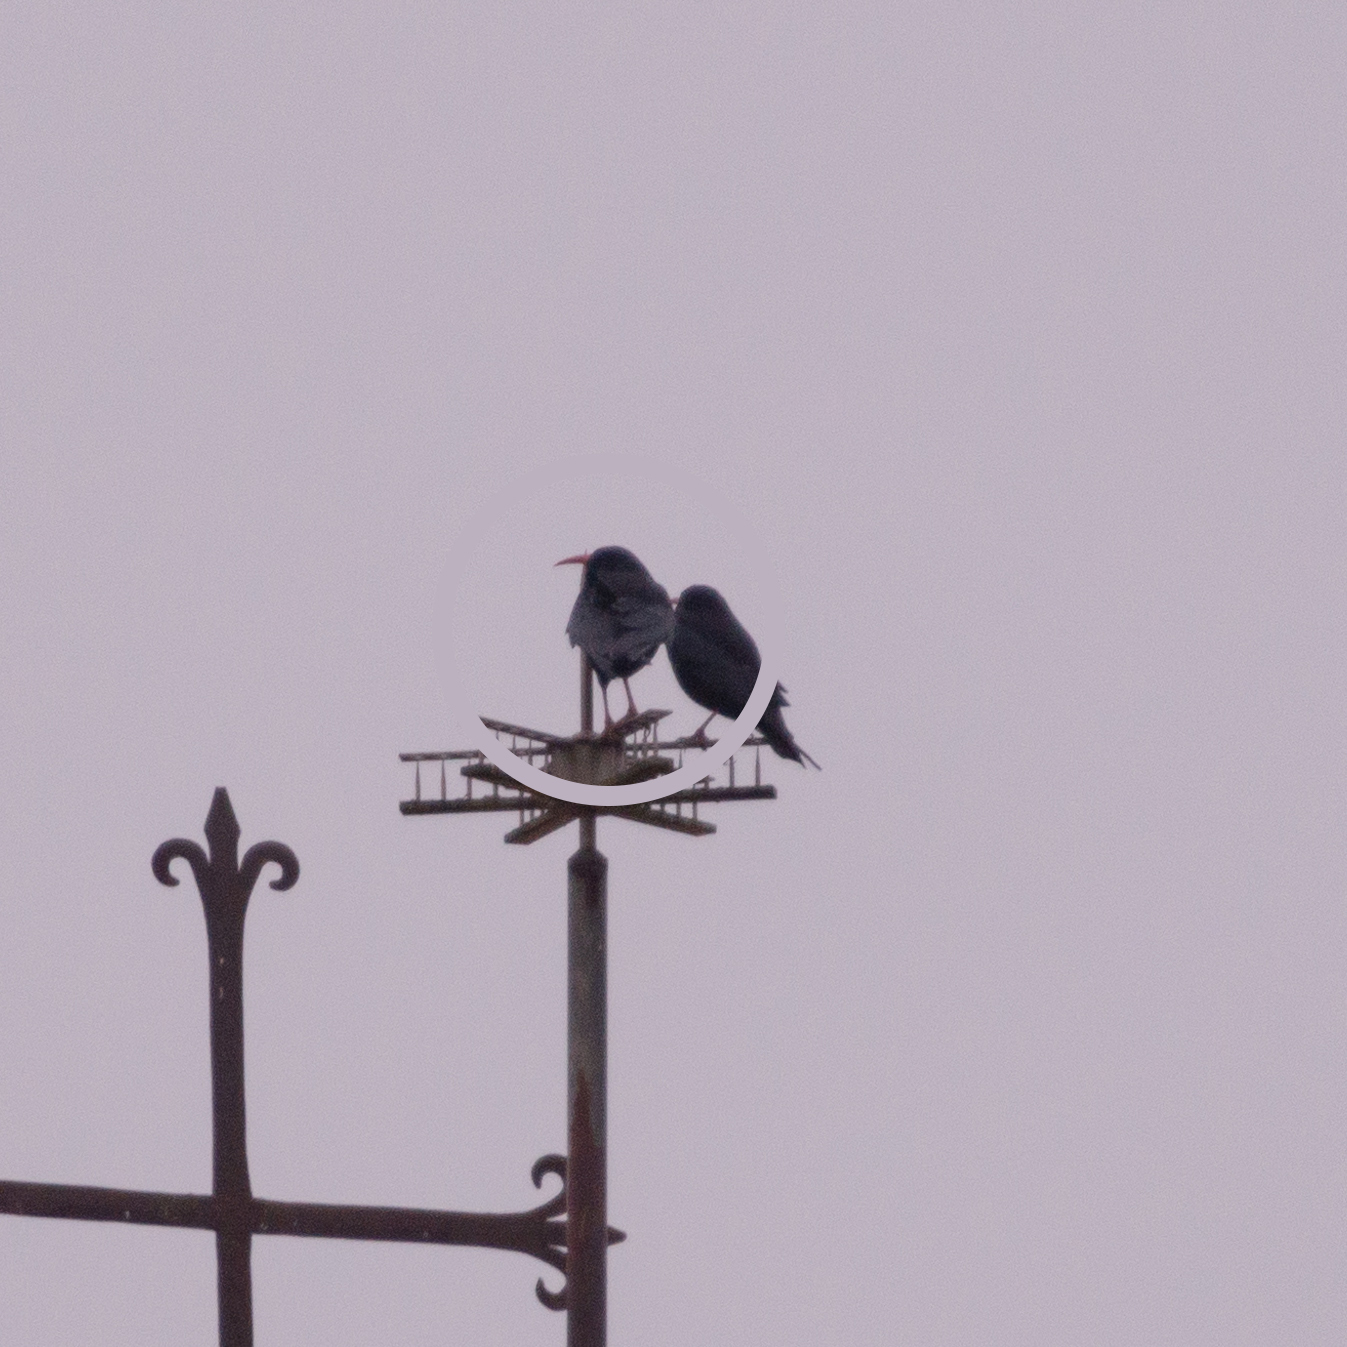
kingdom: Animalia
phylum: Chordata
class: Aves
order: Passeriformes
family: Corvidae
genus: Pyrrhocorax
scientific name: Pyrrhocorax pyrrhocorax
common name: Red-billed chough
